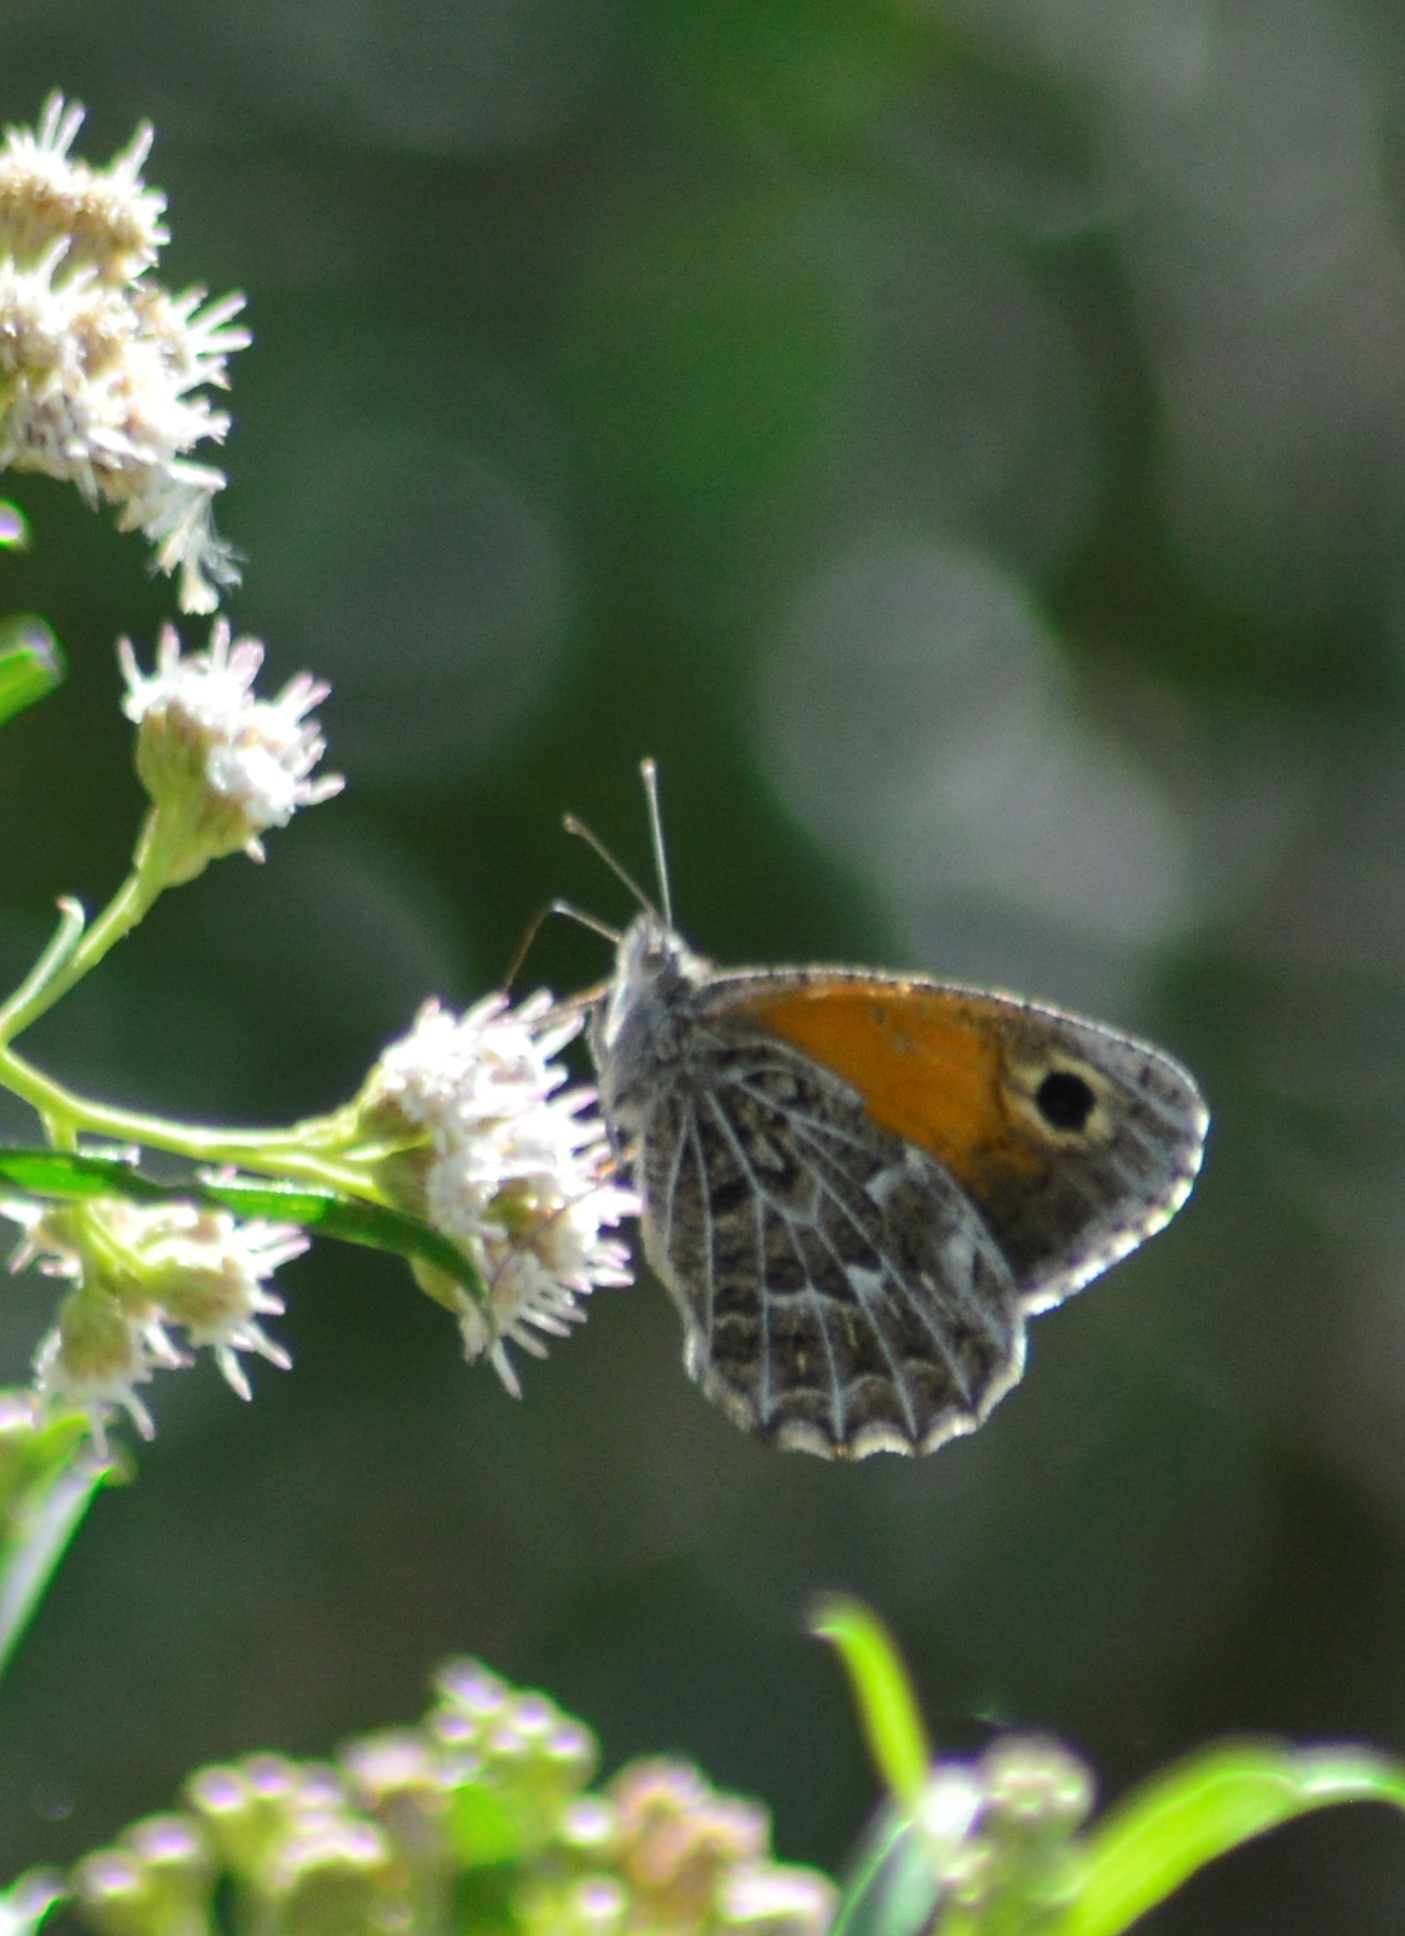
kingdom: Animalia
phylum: Arthropoda
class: Insecta
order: Lepidoptera
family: Nymphalidae
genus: Argyrophorus
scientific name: Argyrophorus
